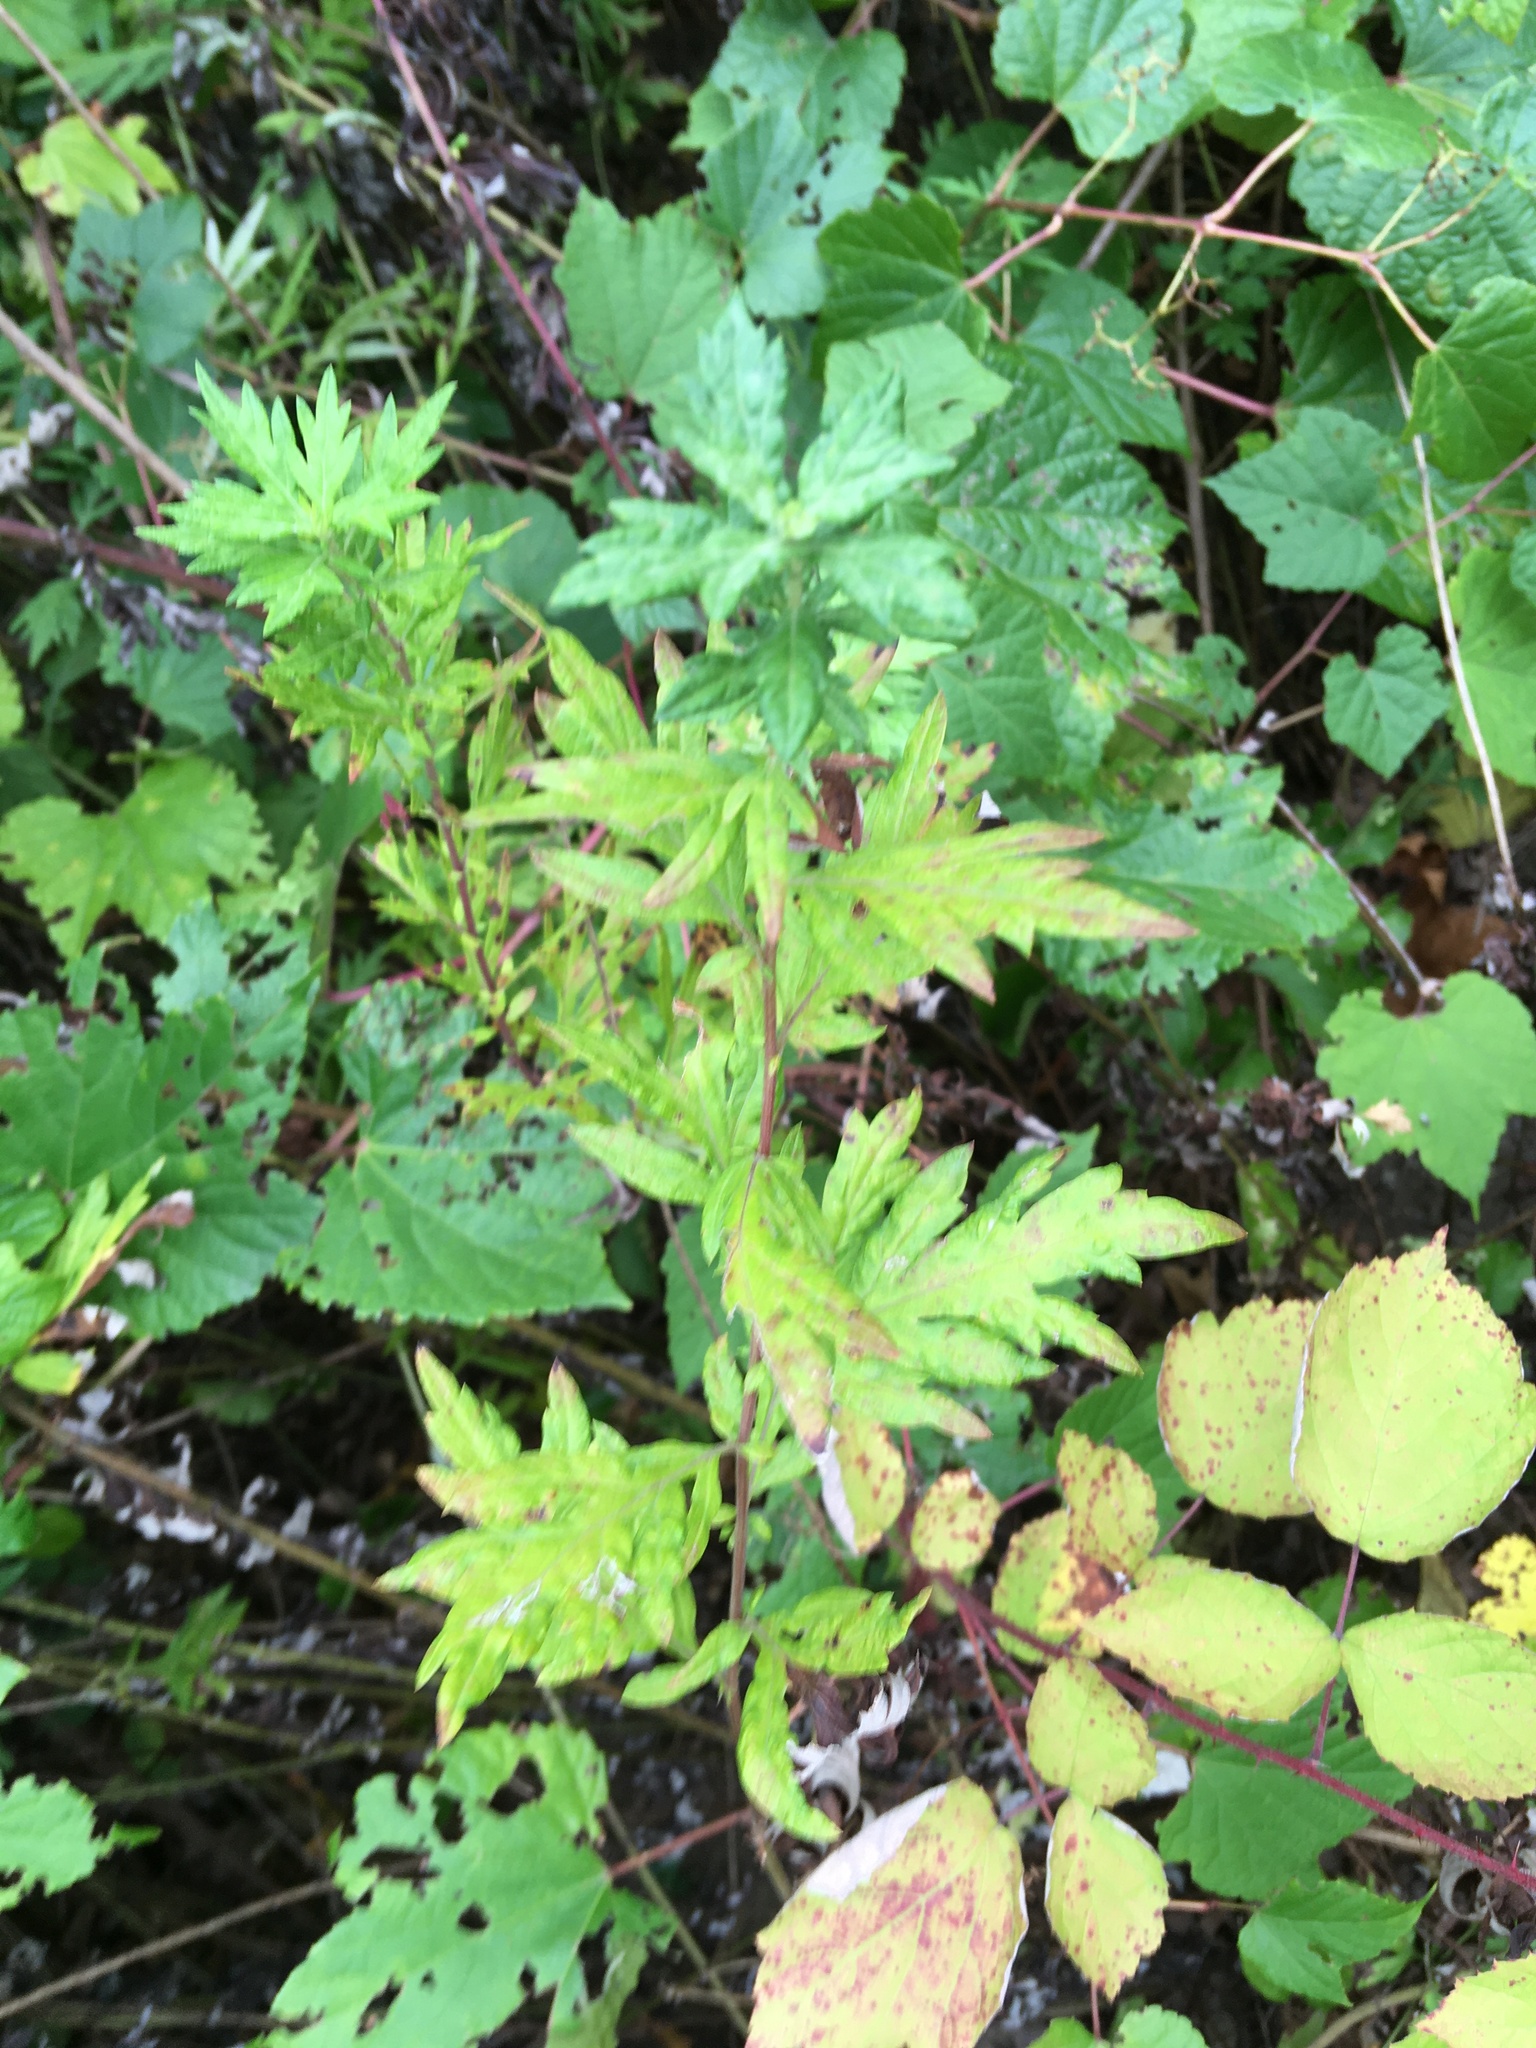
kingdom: Plantae
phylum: Tracheophyta
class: Magnoliopsida
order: Asterales
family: Asteraceae
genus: Artemisia
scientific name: Artemisia vulgaris
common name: Mugwort
